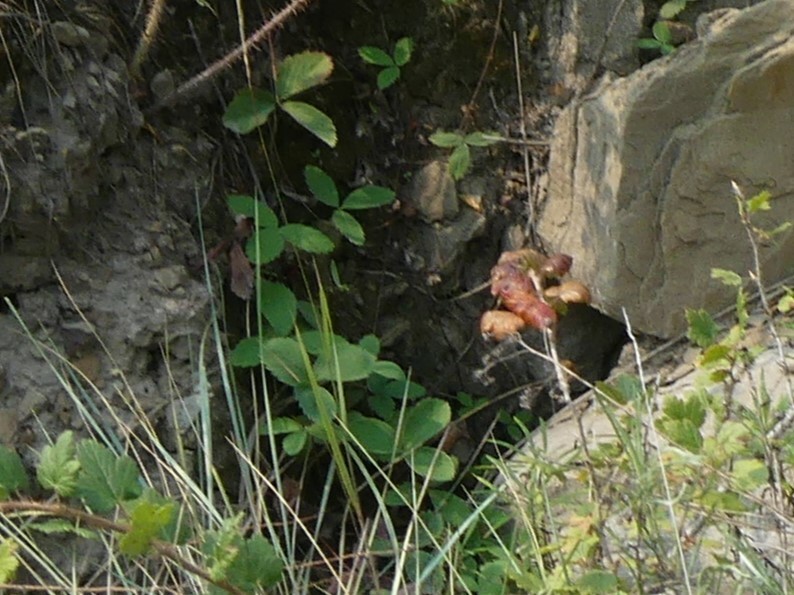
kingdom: Plantae
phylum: Tracheophyta
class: Magnoliopsida
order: Rosales
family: Rosaceae
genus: Fragaria
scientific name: Fragaria virginiana
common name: Thickleaved wild strawberry
